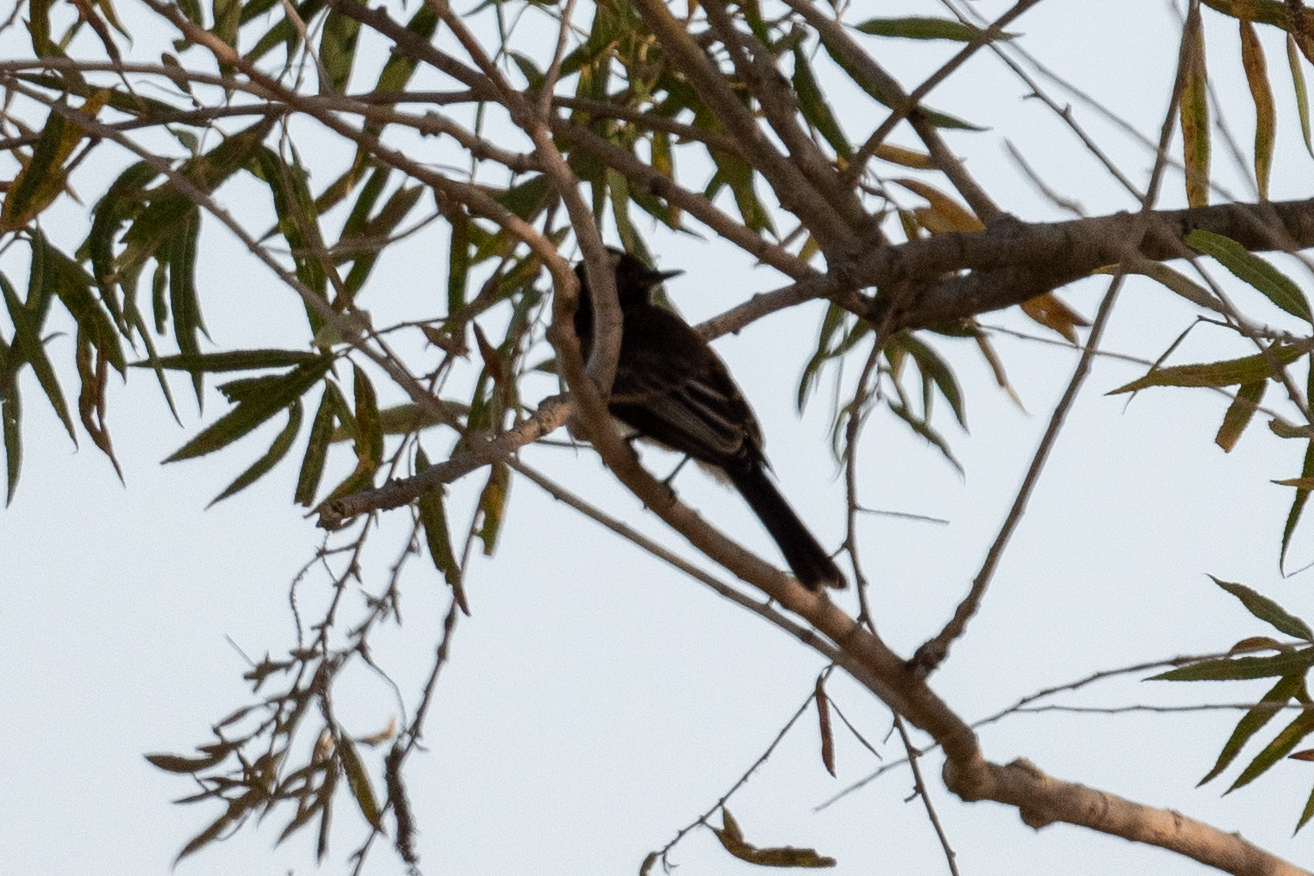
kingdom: Animalia
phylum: Chordata
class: Aves
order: Passeriformes
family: Tyrannidae
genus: Sayornis
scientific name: Sayornis nigricans
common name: Black phoebe
